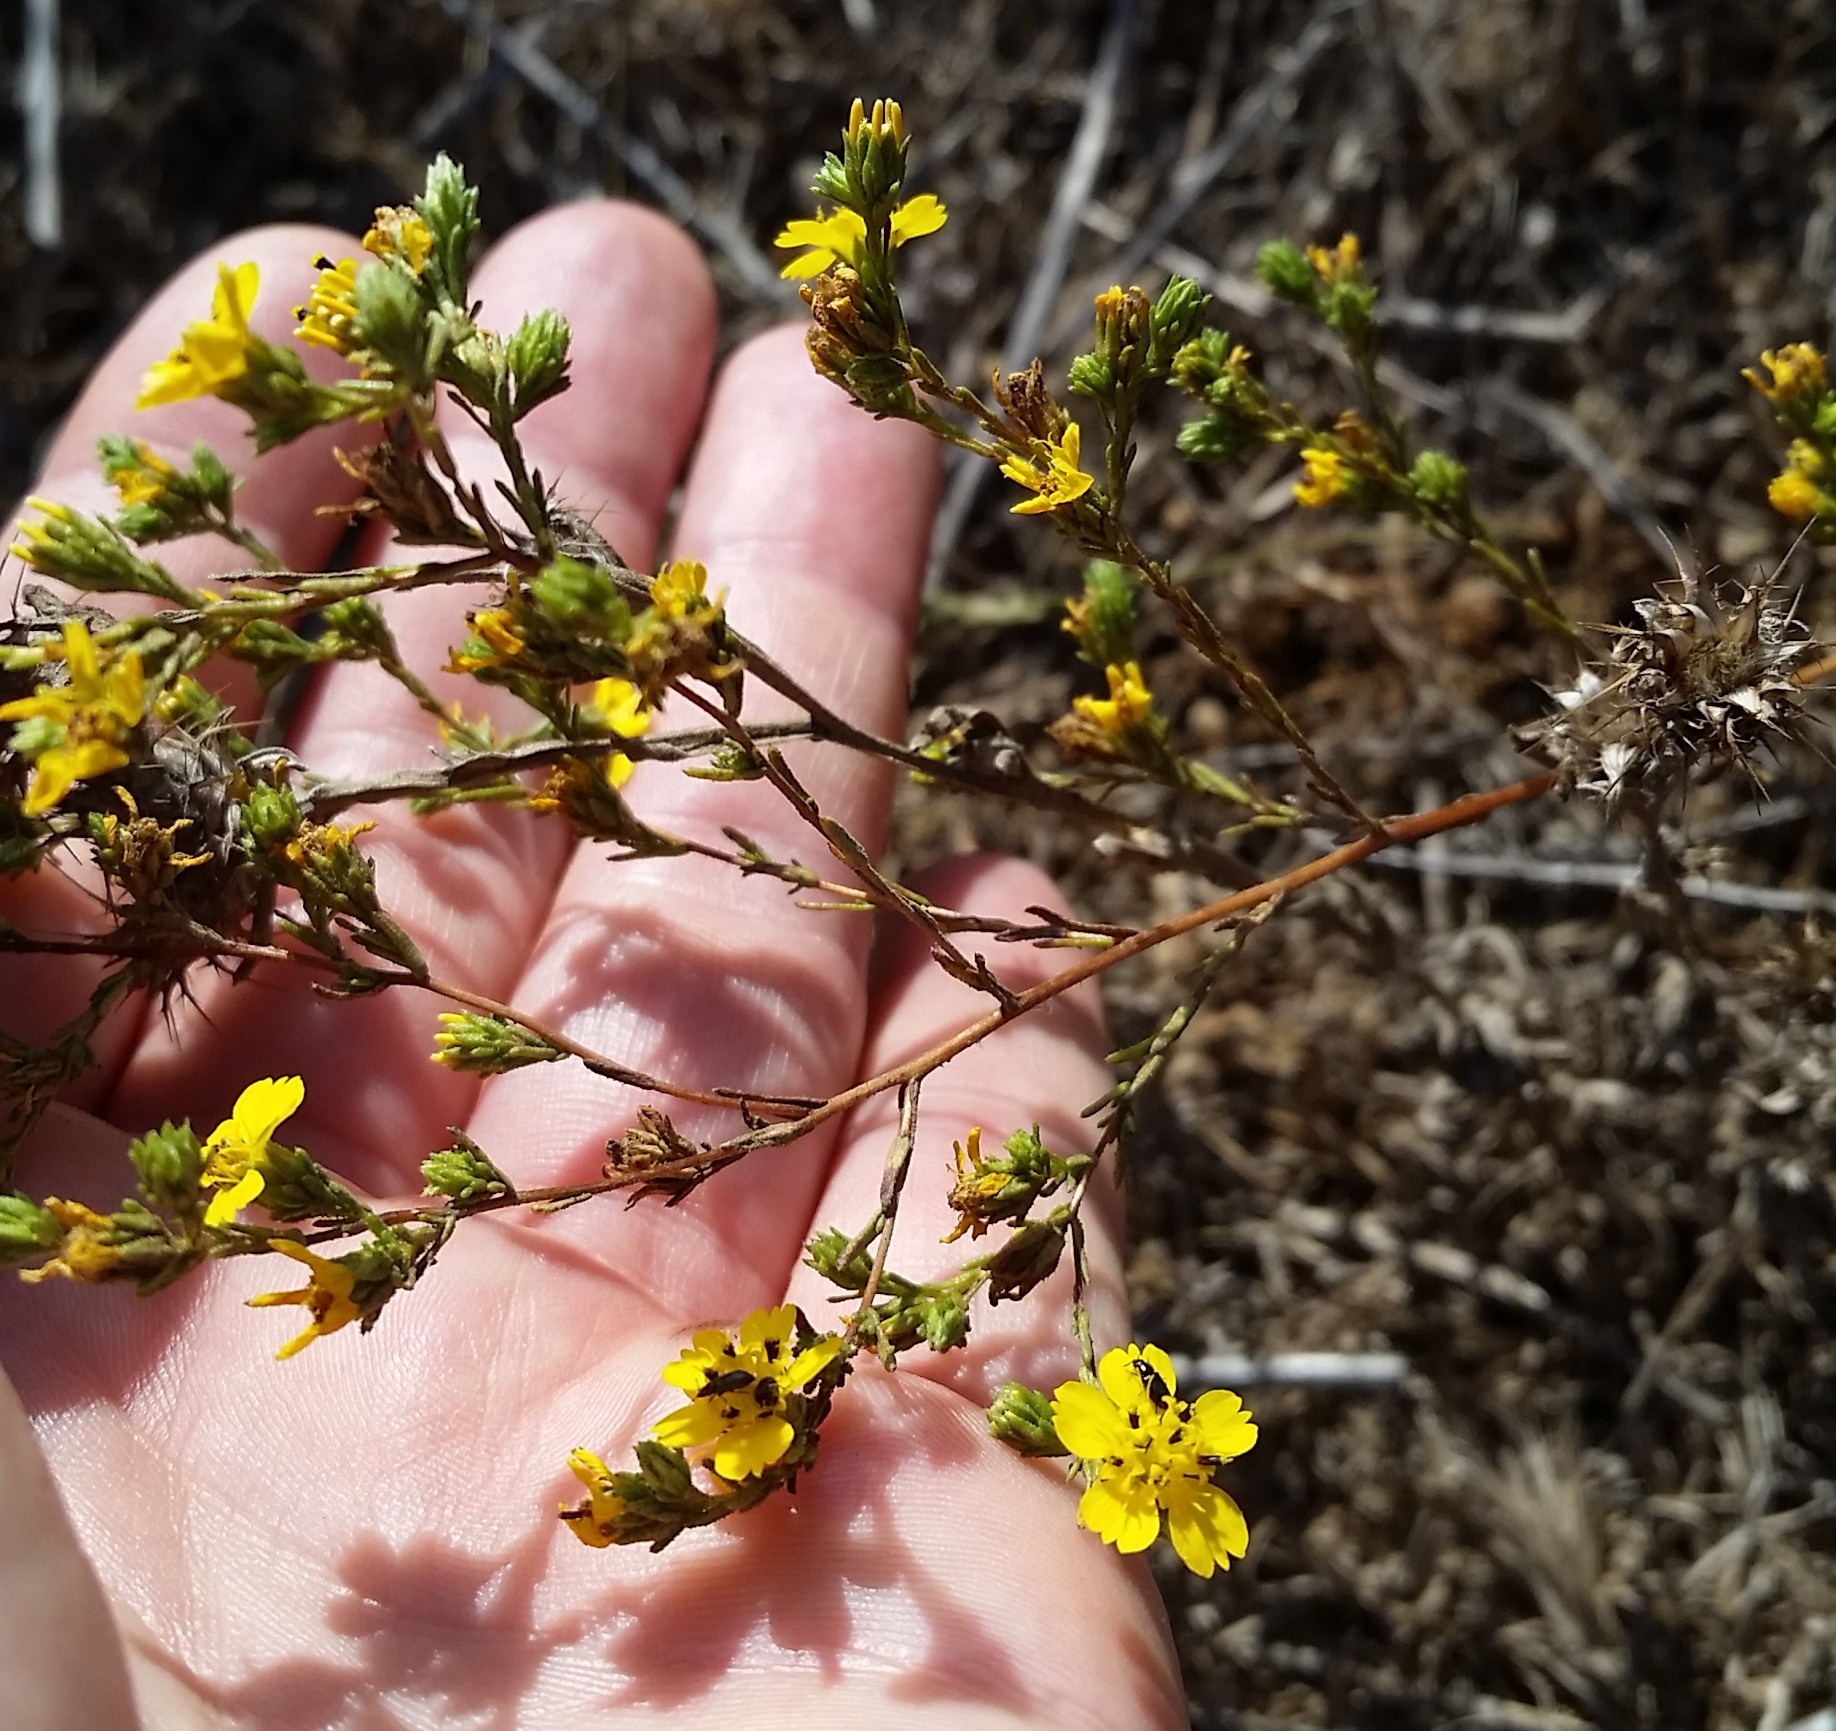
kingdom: Plantae
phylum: Tracheophyta
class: Magnoliopsida
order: Asterales
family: Asteraceae
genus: Deinandra
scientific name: Deinandra fasciculata
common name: Clustered tarweed
